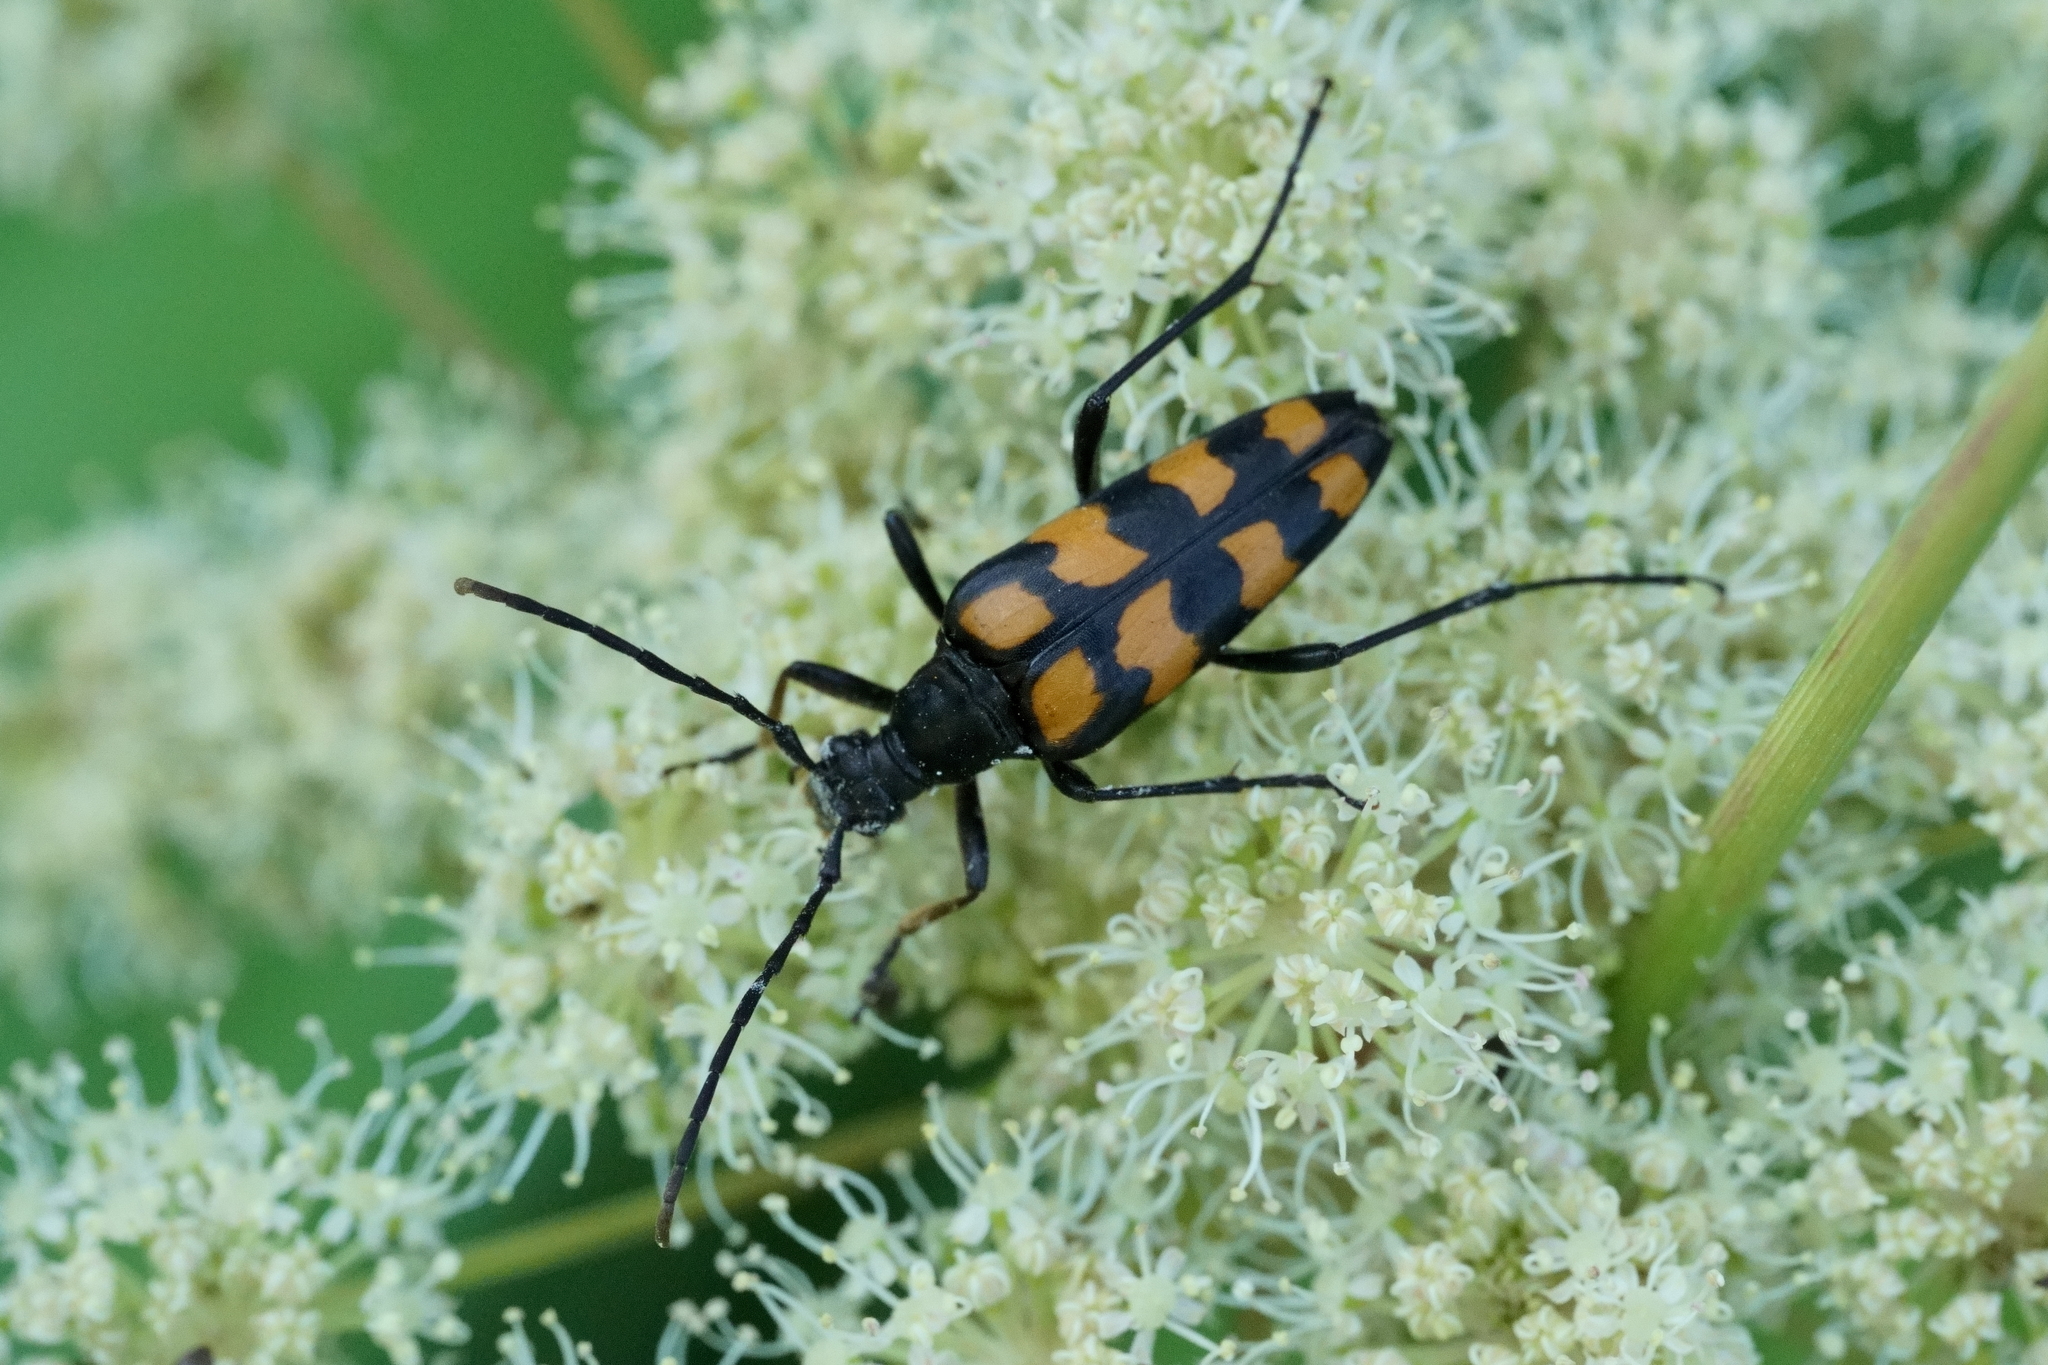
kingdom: Animalia
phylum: Arthropoda
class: Insecta
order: Coleoptera
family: Cerambycidae
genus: Leptura
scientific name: Leptura quadrifasciata
